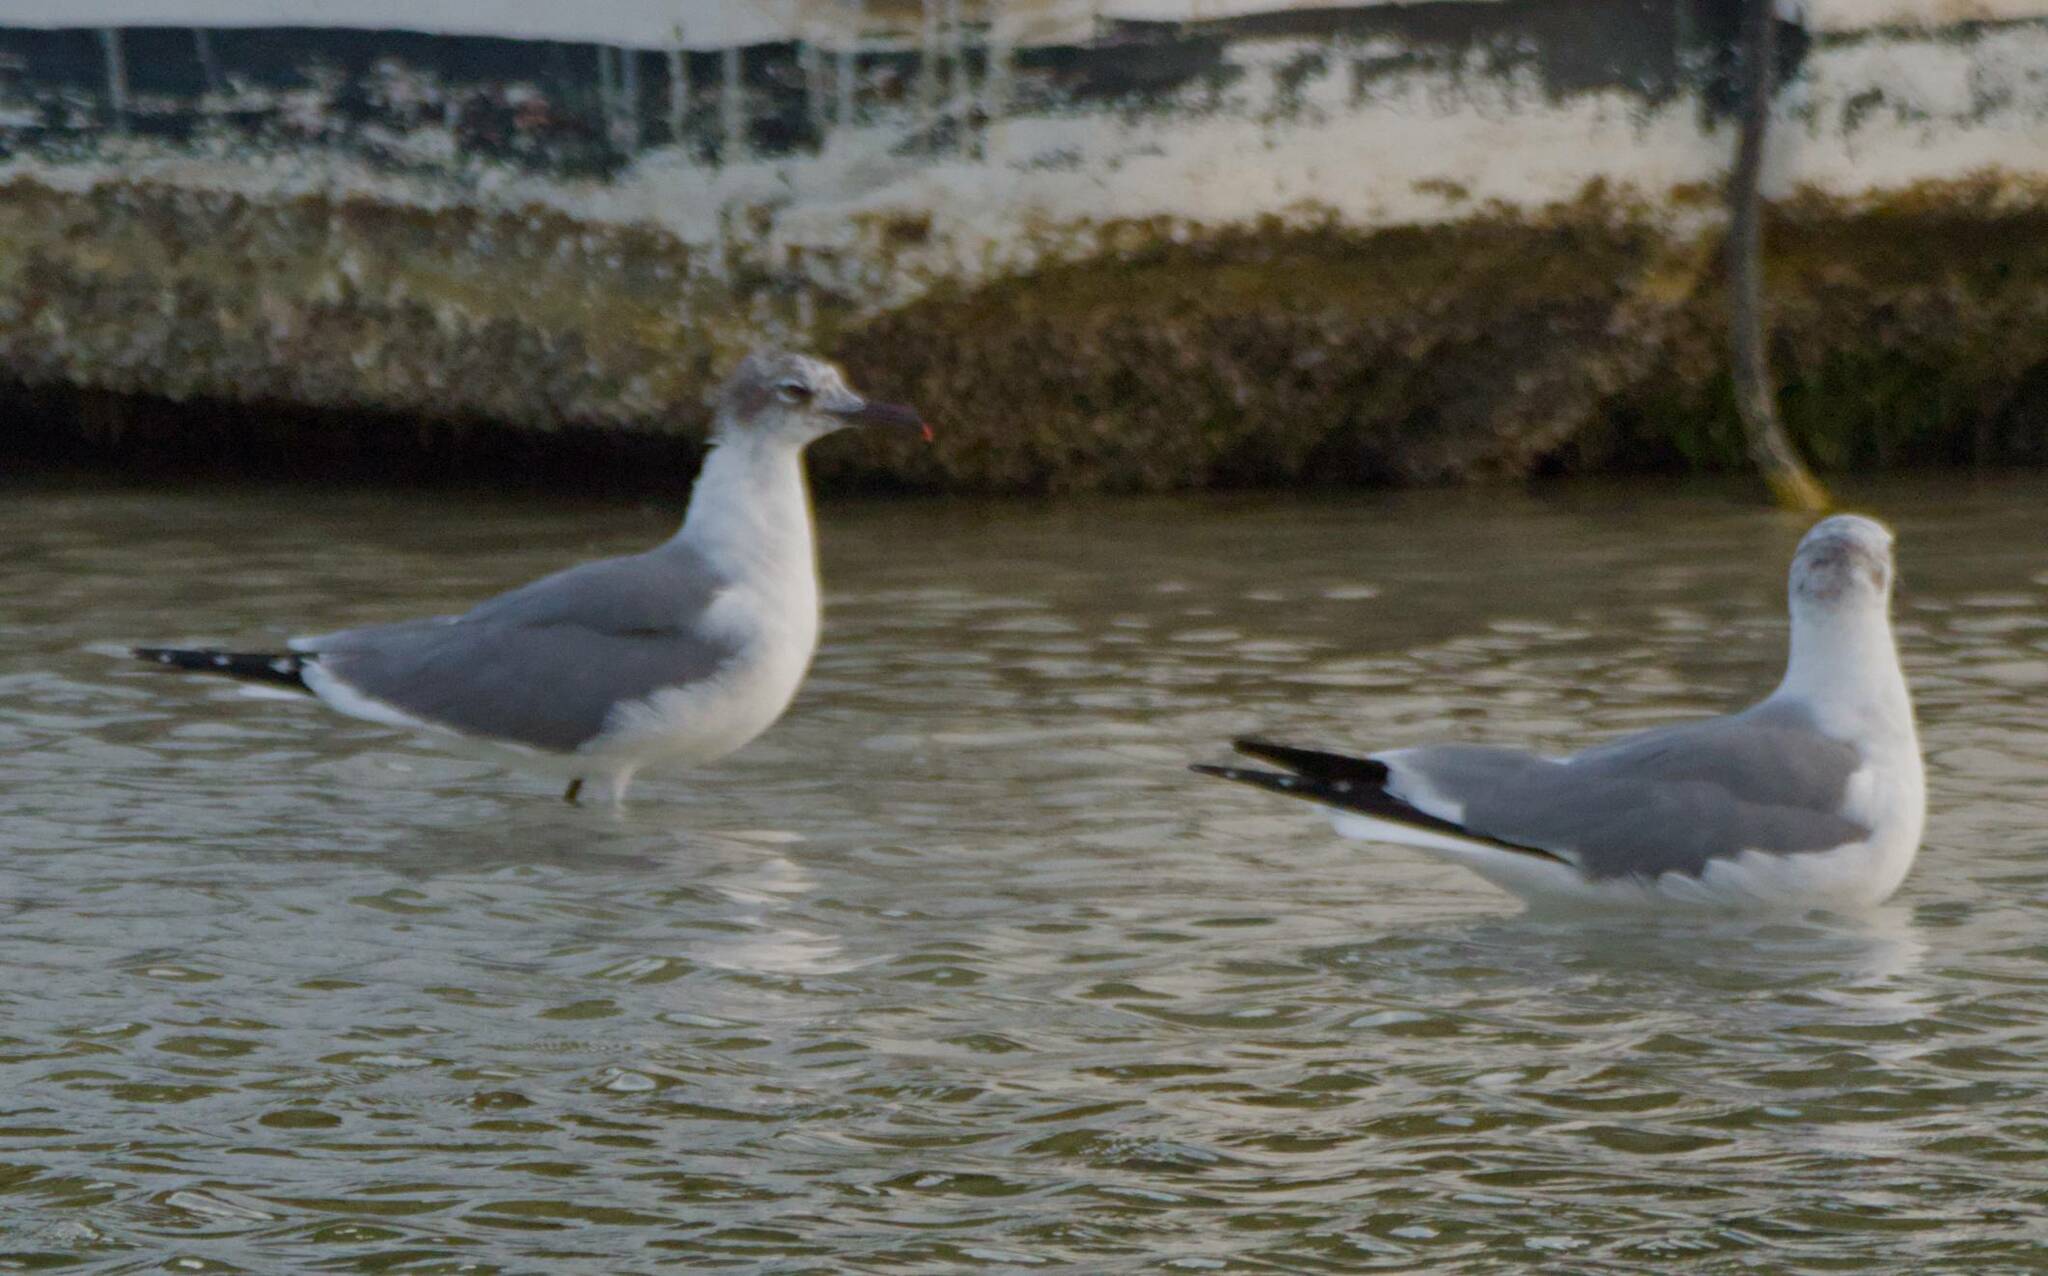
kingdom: Animalia
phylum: Chordata
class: Aves
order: Charadriiformes
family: Laridae
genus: Leucophaeus
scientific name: Leucophaeus atricilla
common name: Laughing gull
